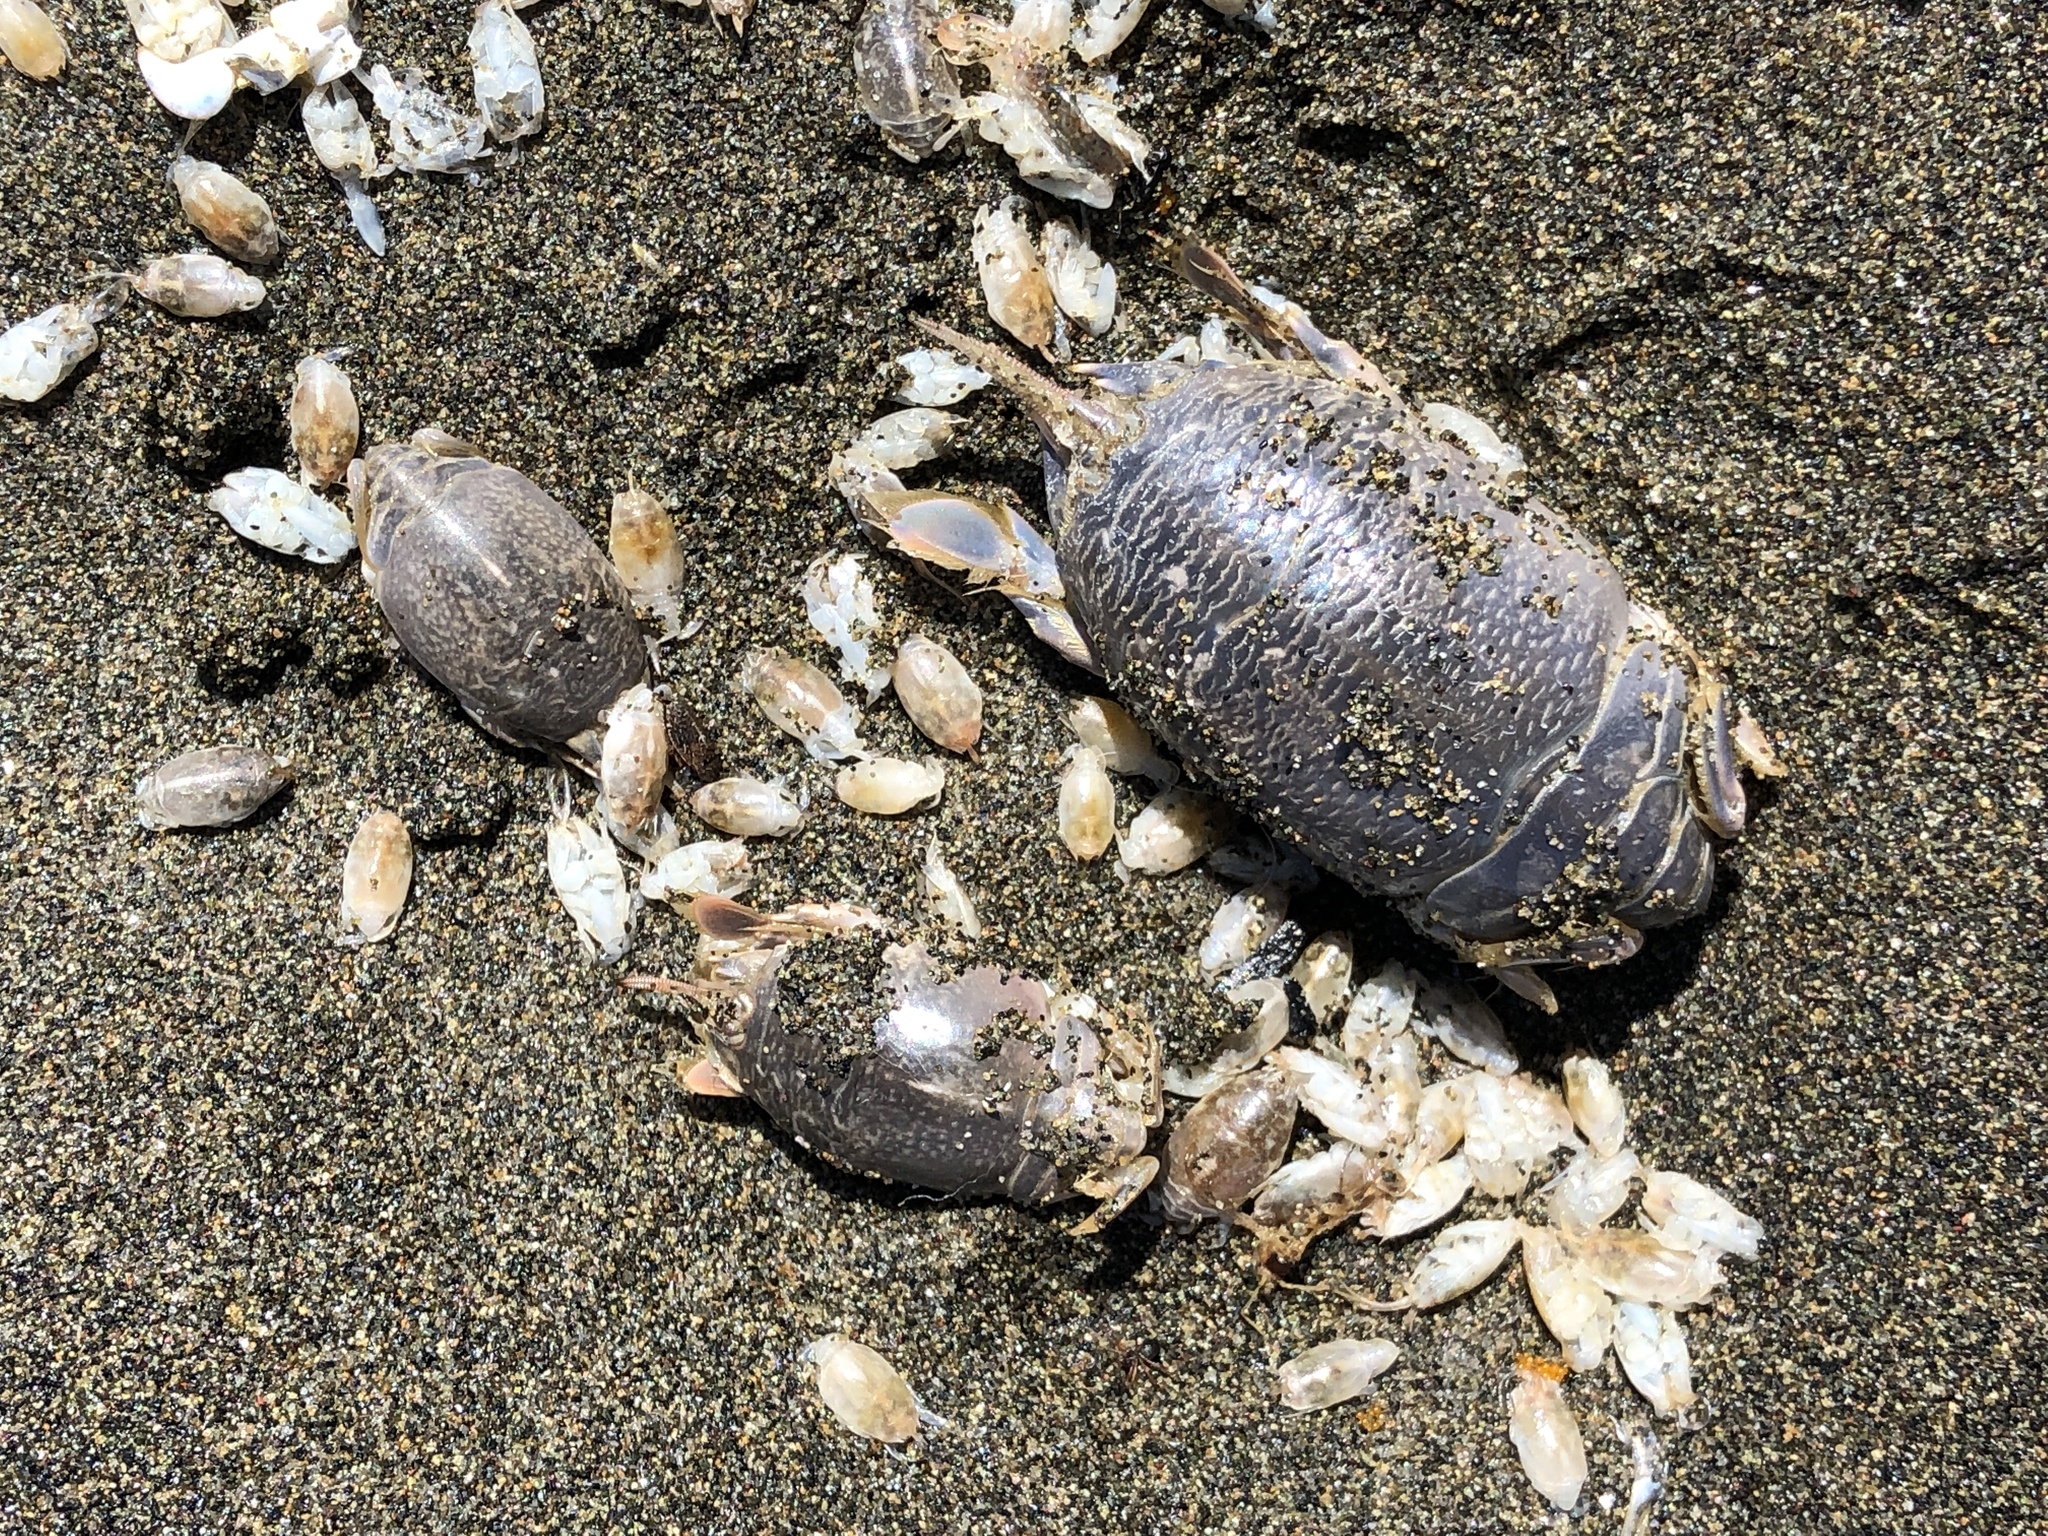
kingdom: Animalia
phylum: Arthropoda
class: Malacostraca
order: Decapoda
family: Hippidae
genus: Emerita
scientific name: Emerita analoga
